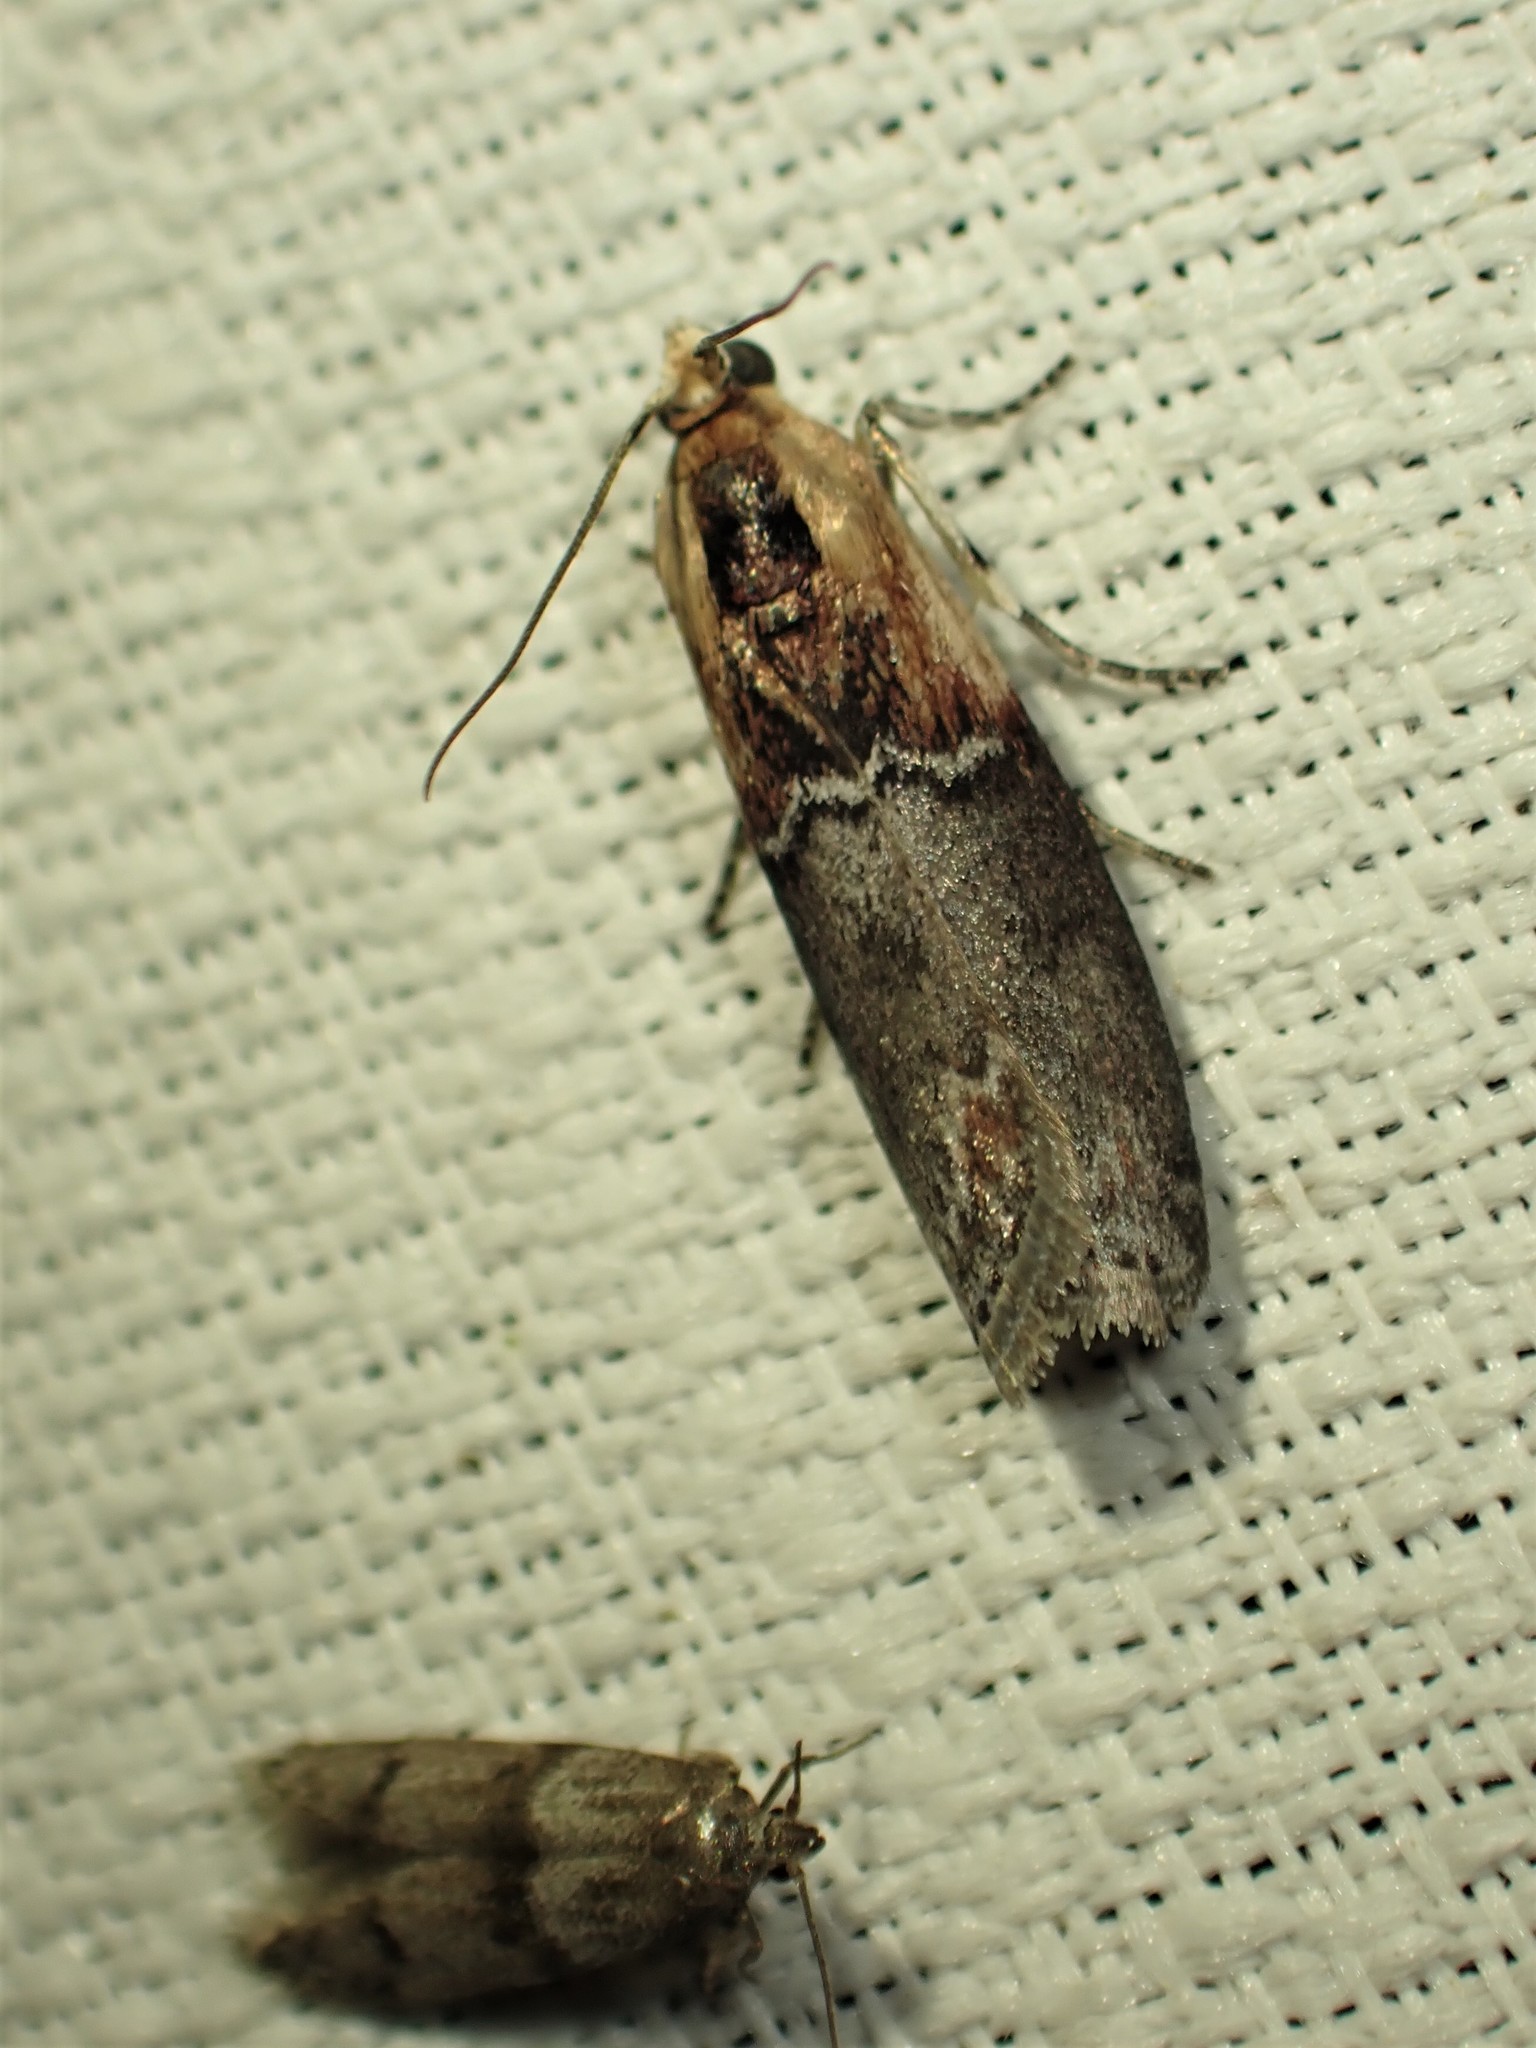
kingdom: Animalia
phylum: Arthropoda
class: Insecta
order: Lepidoptera
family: Pyralidae
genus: Sciota
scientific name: Sciota basilaris
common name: Yellow-shouldered leafroller
